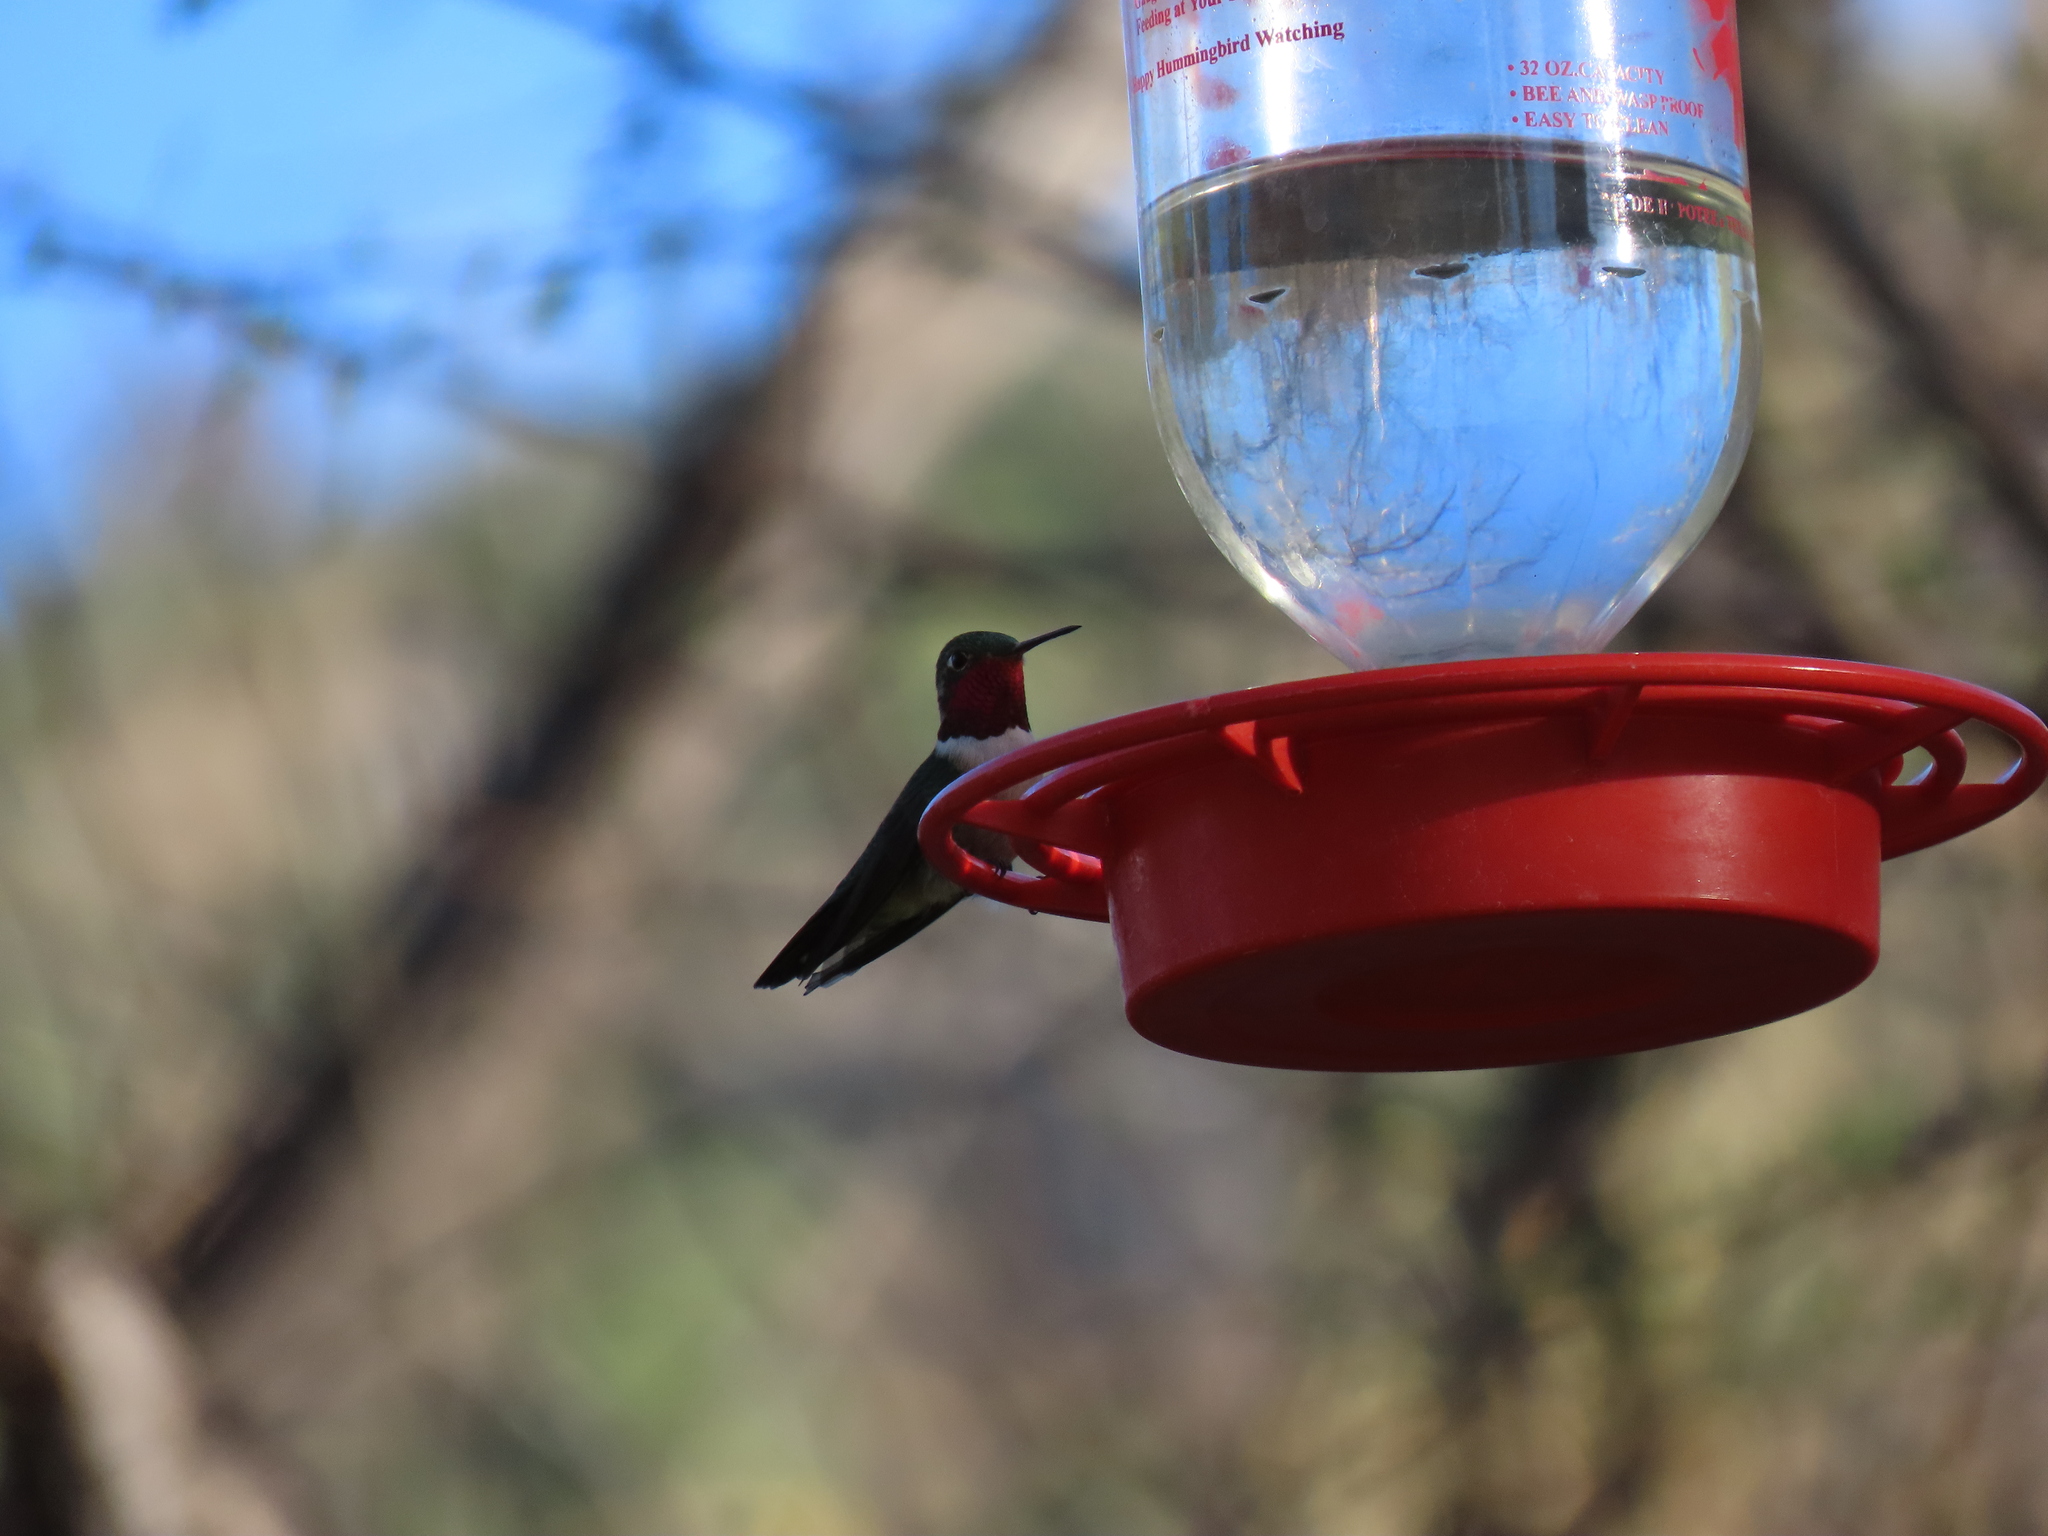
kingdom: Animalia
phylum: Chordata
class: Aves
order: Apodiformes
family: Trochilidae
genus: Selasphorus
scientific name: Selasphorus platycercus
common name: Broad-tailed hummingbird
